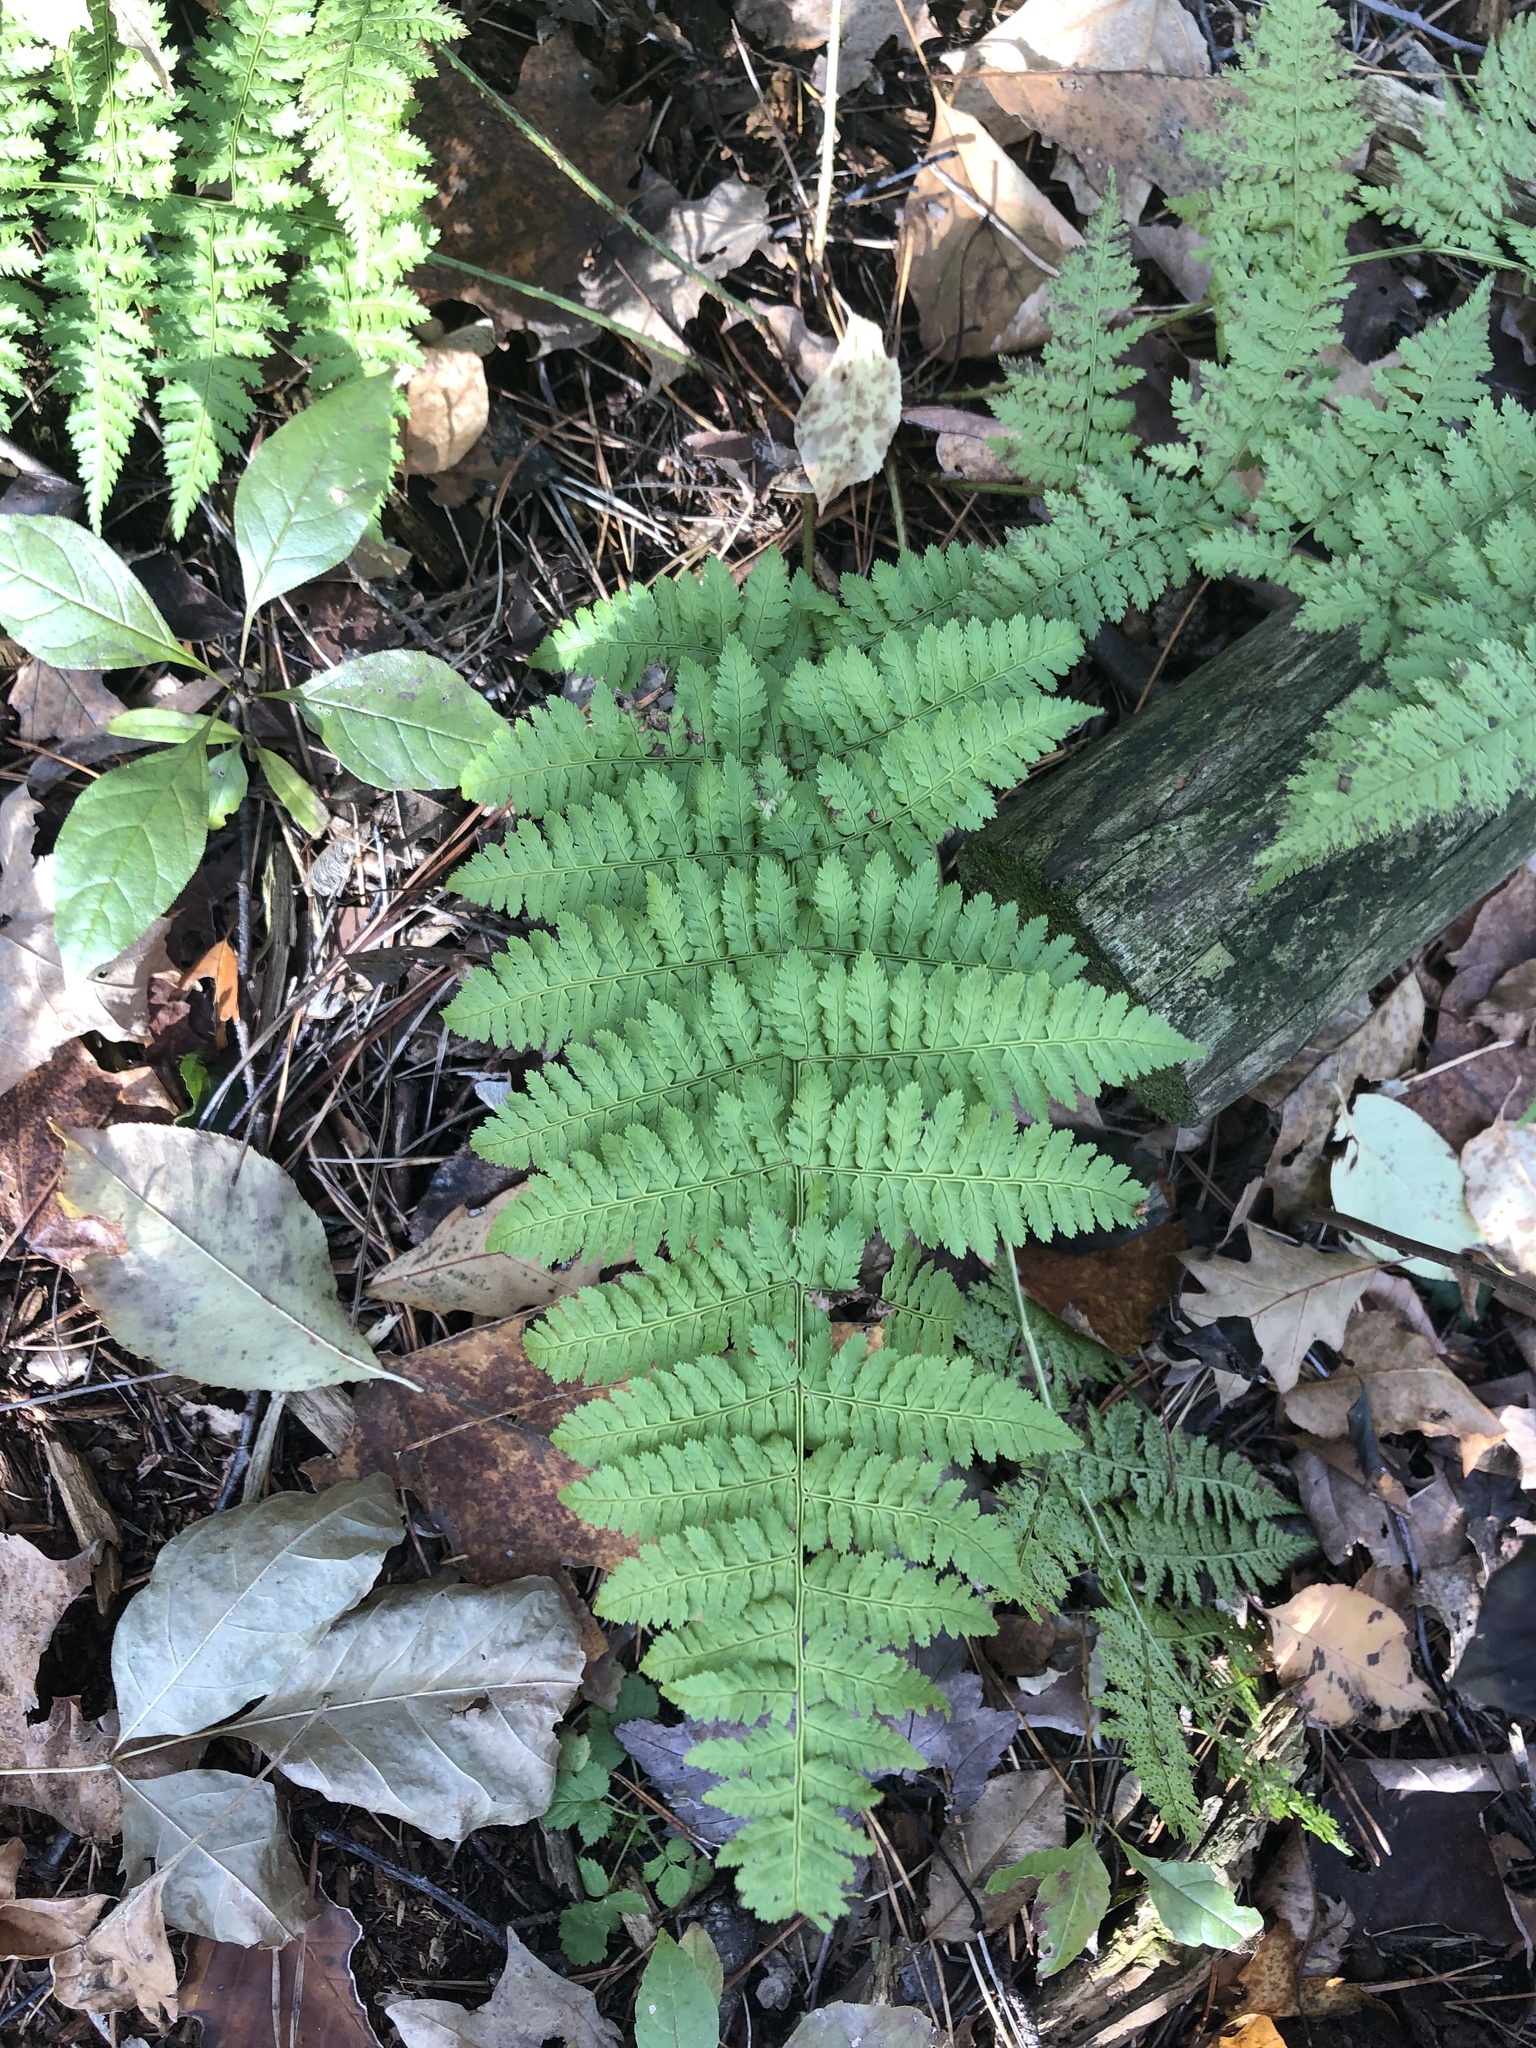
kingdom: Plantae
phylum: Tracheophyta
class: Polypodiopsida
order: Polypodiales
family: Dryopteridaceae
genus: Dryopteris
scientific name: Dryopteris intermedia
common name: Evergreen wood fern
